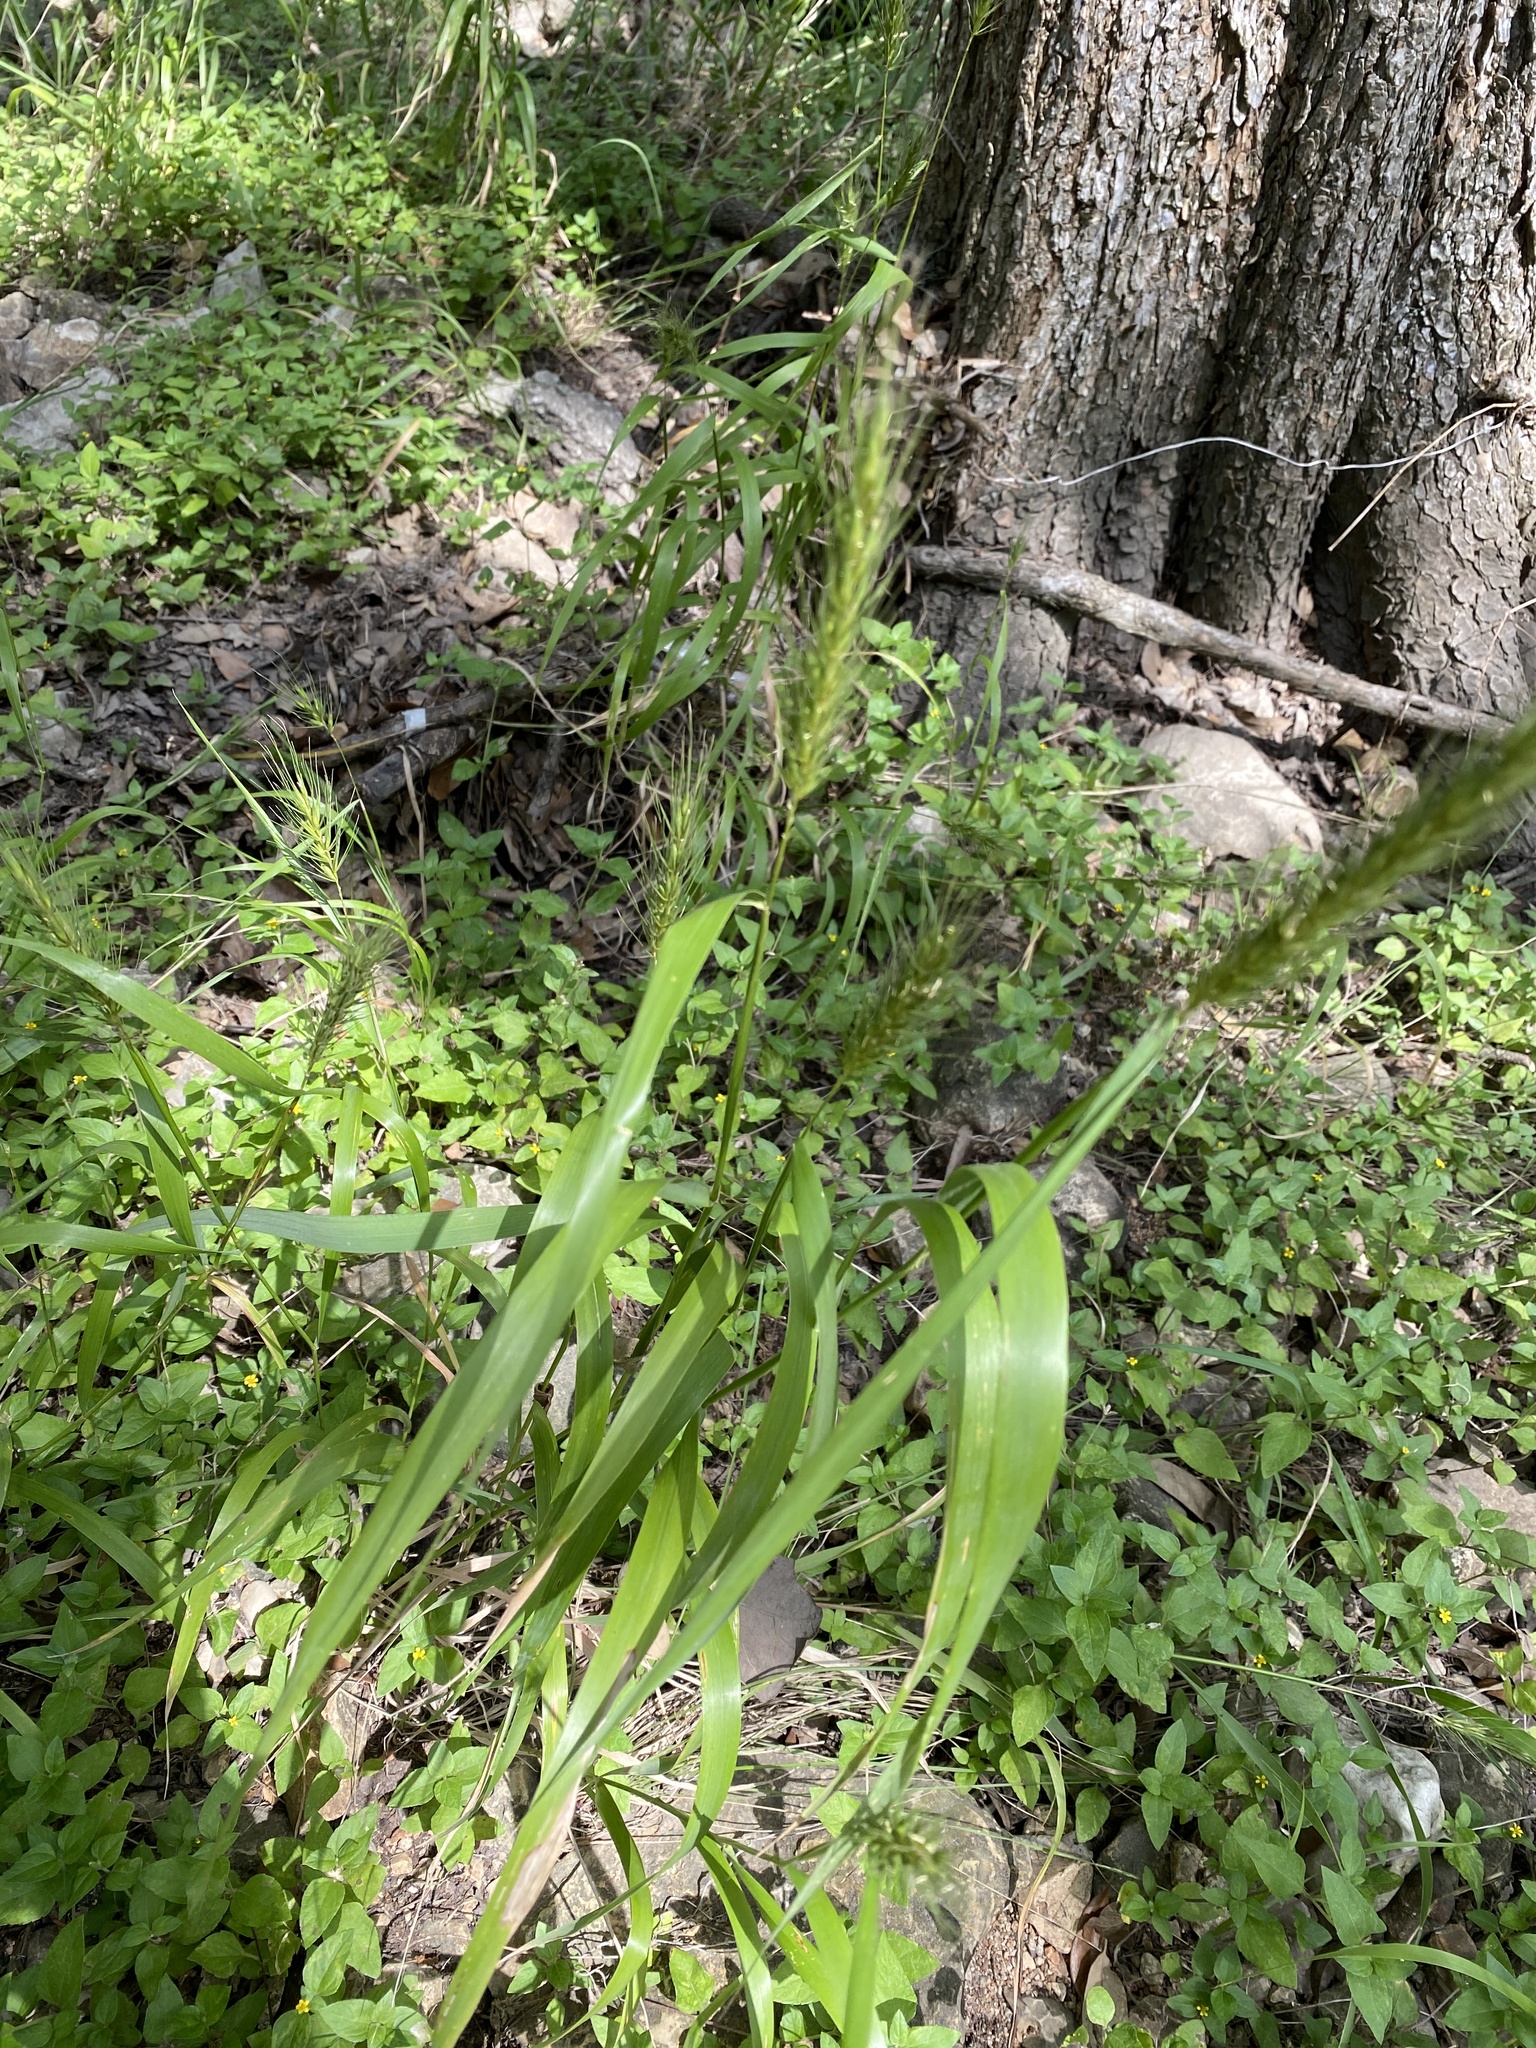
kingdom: Plantae
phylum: Tracheophyta
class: Liliopsida
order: Poales
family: Poaceae
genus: Elymus
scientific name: Elymus virginicus
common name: Common eastern wildrye
